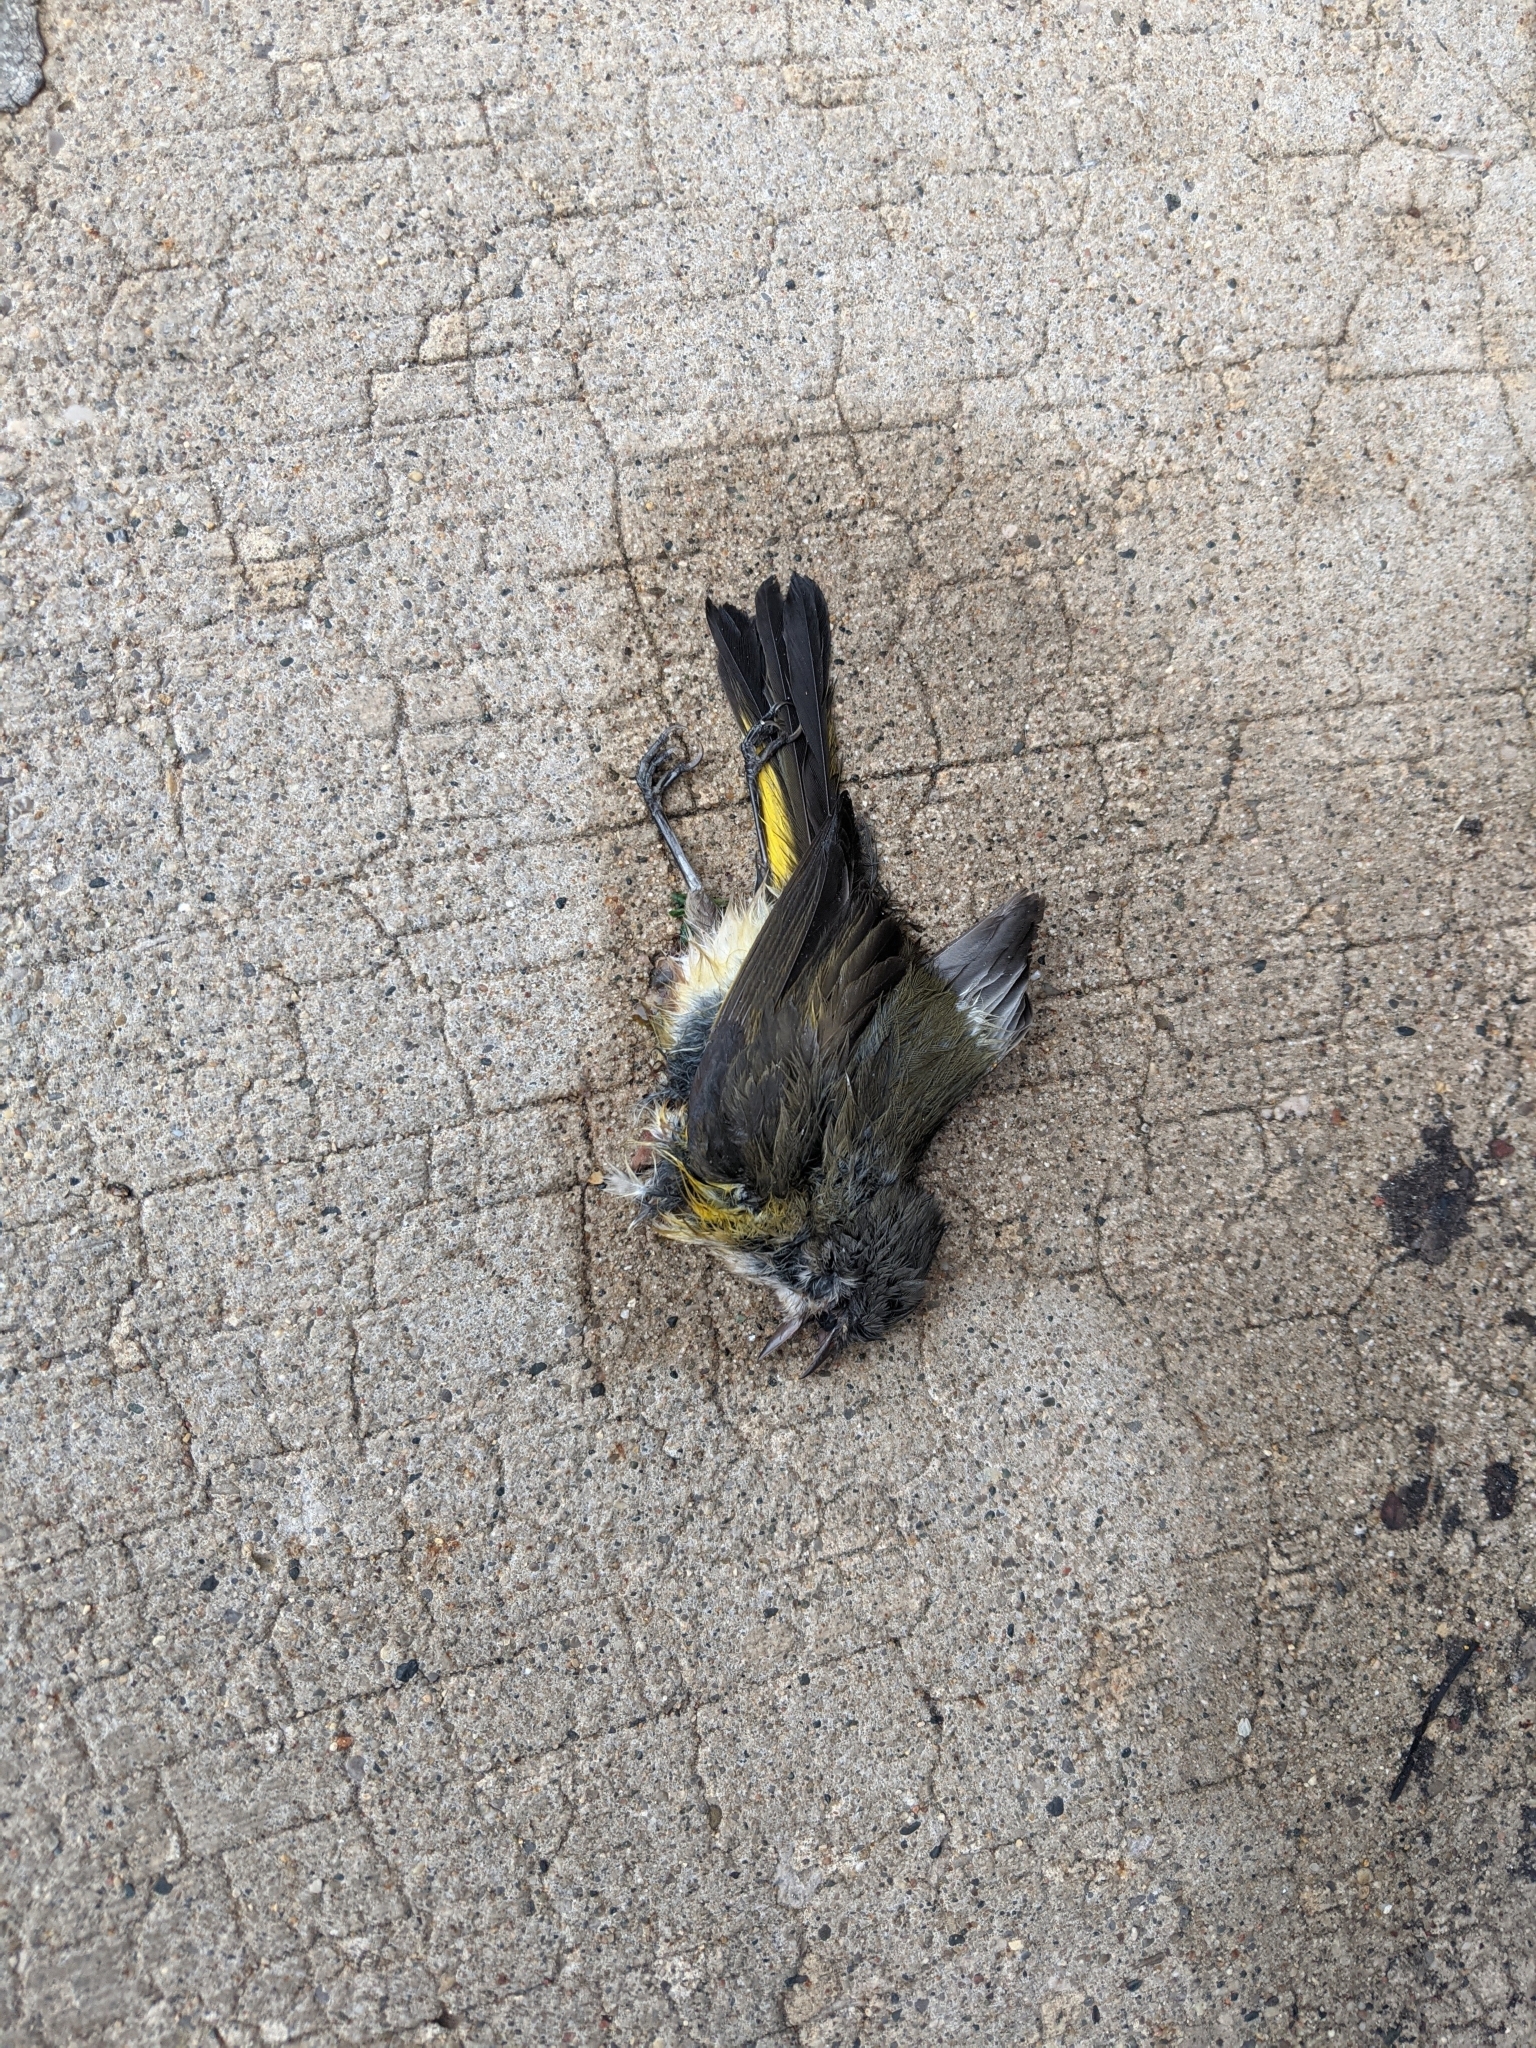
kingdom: Animalia
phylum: Chordata
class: Aves
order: Passeriformes
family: Parulidae
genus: Setophaga
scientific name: Setophaga ruticilla
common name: American redstart
